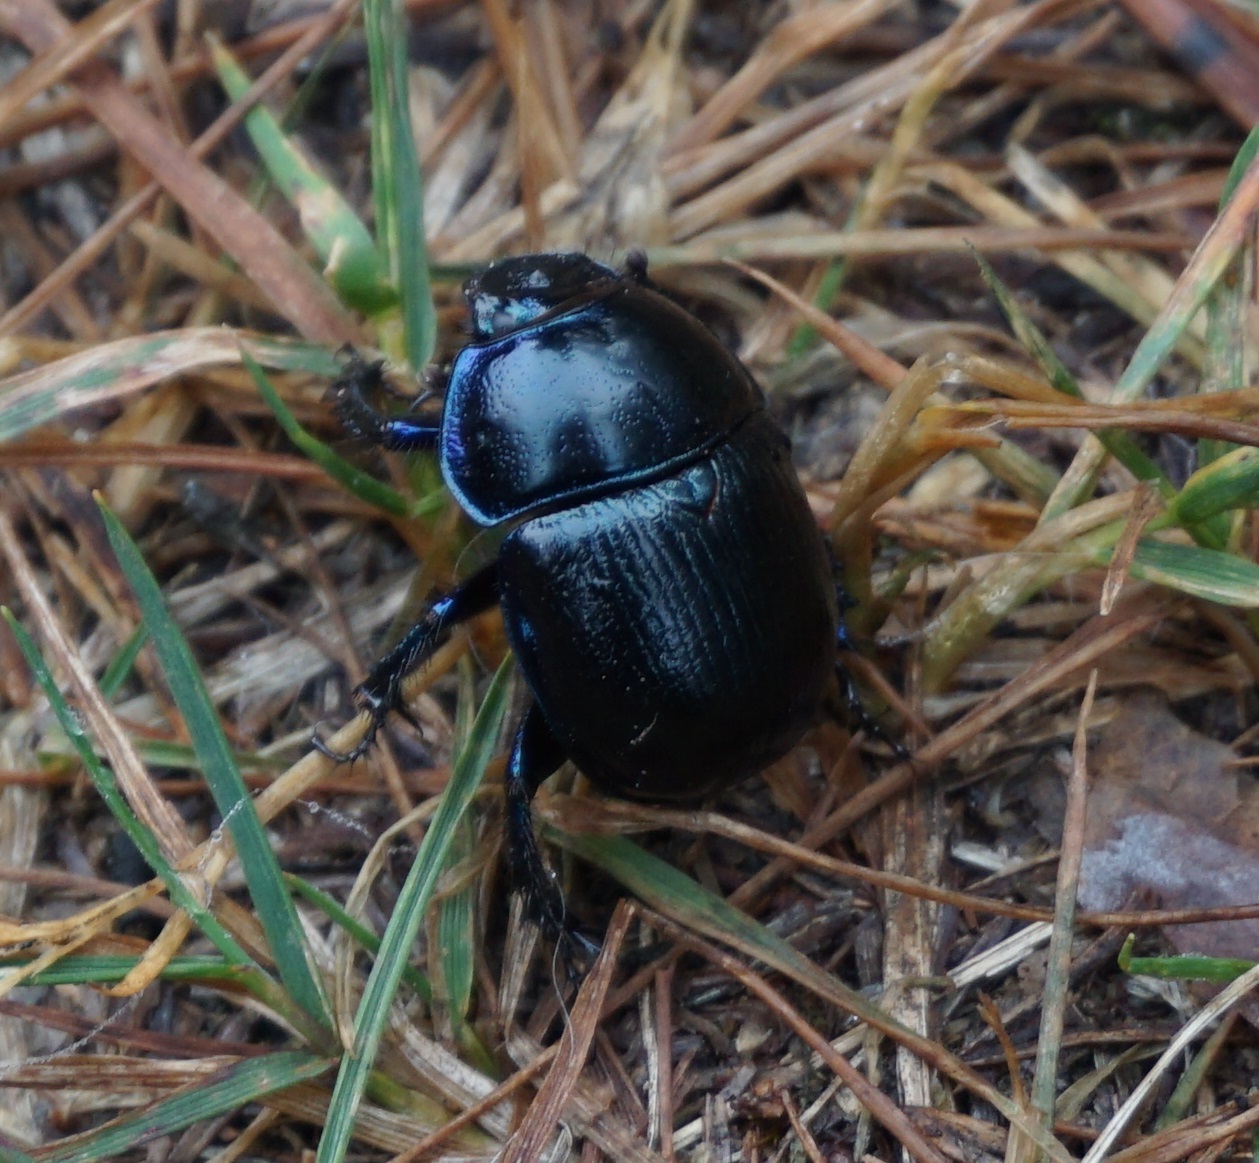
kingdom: Animalia
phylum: Arthropoda
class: Insecta
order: Coleoptera
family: Geotrupidae
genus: Anoplotrupes
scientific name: Anoplotrupes stercorosus
